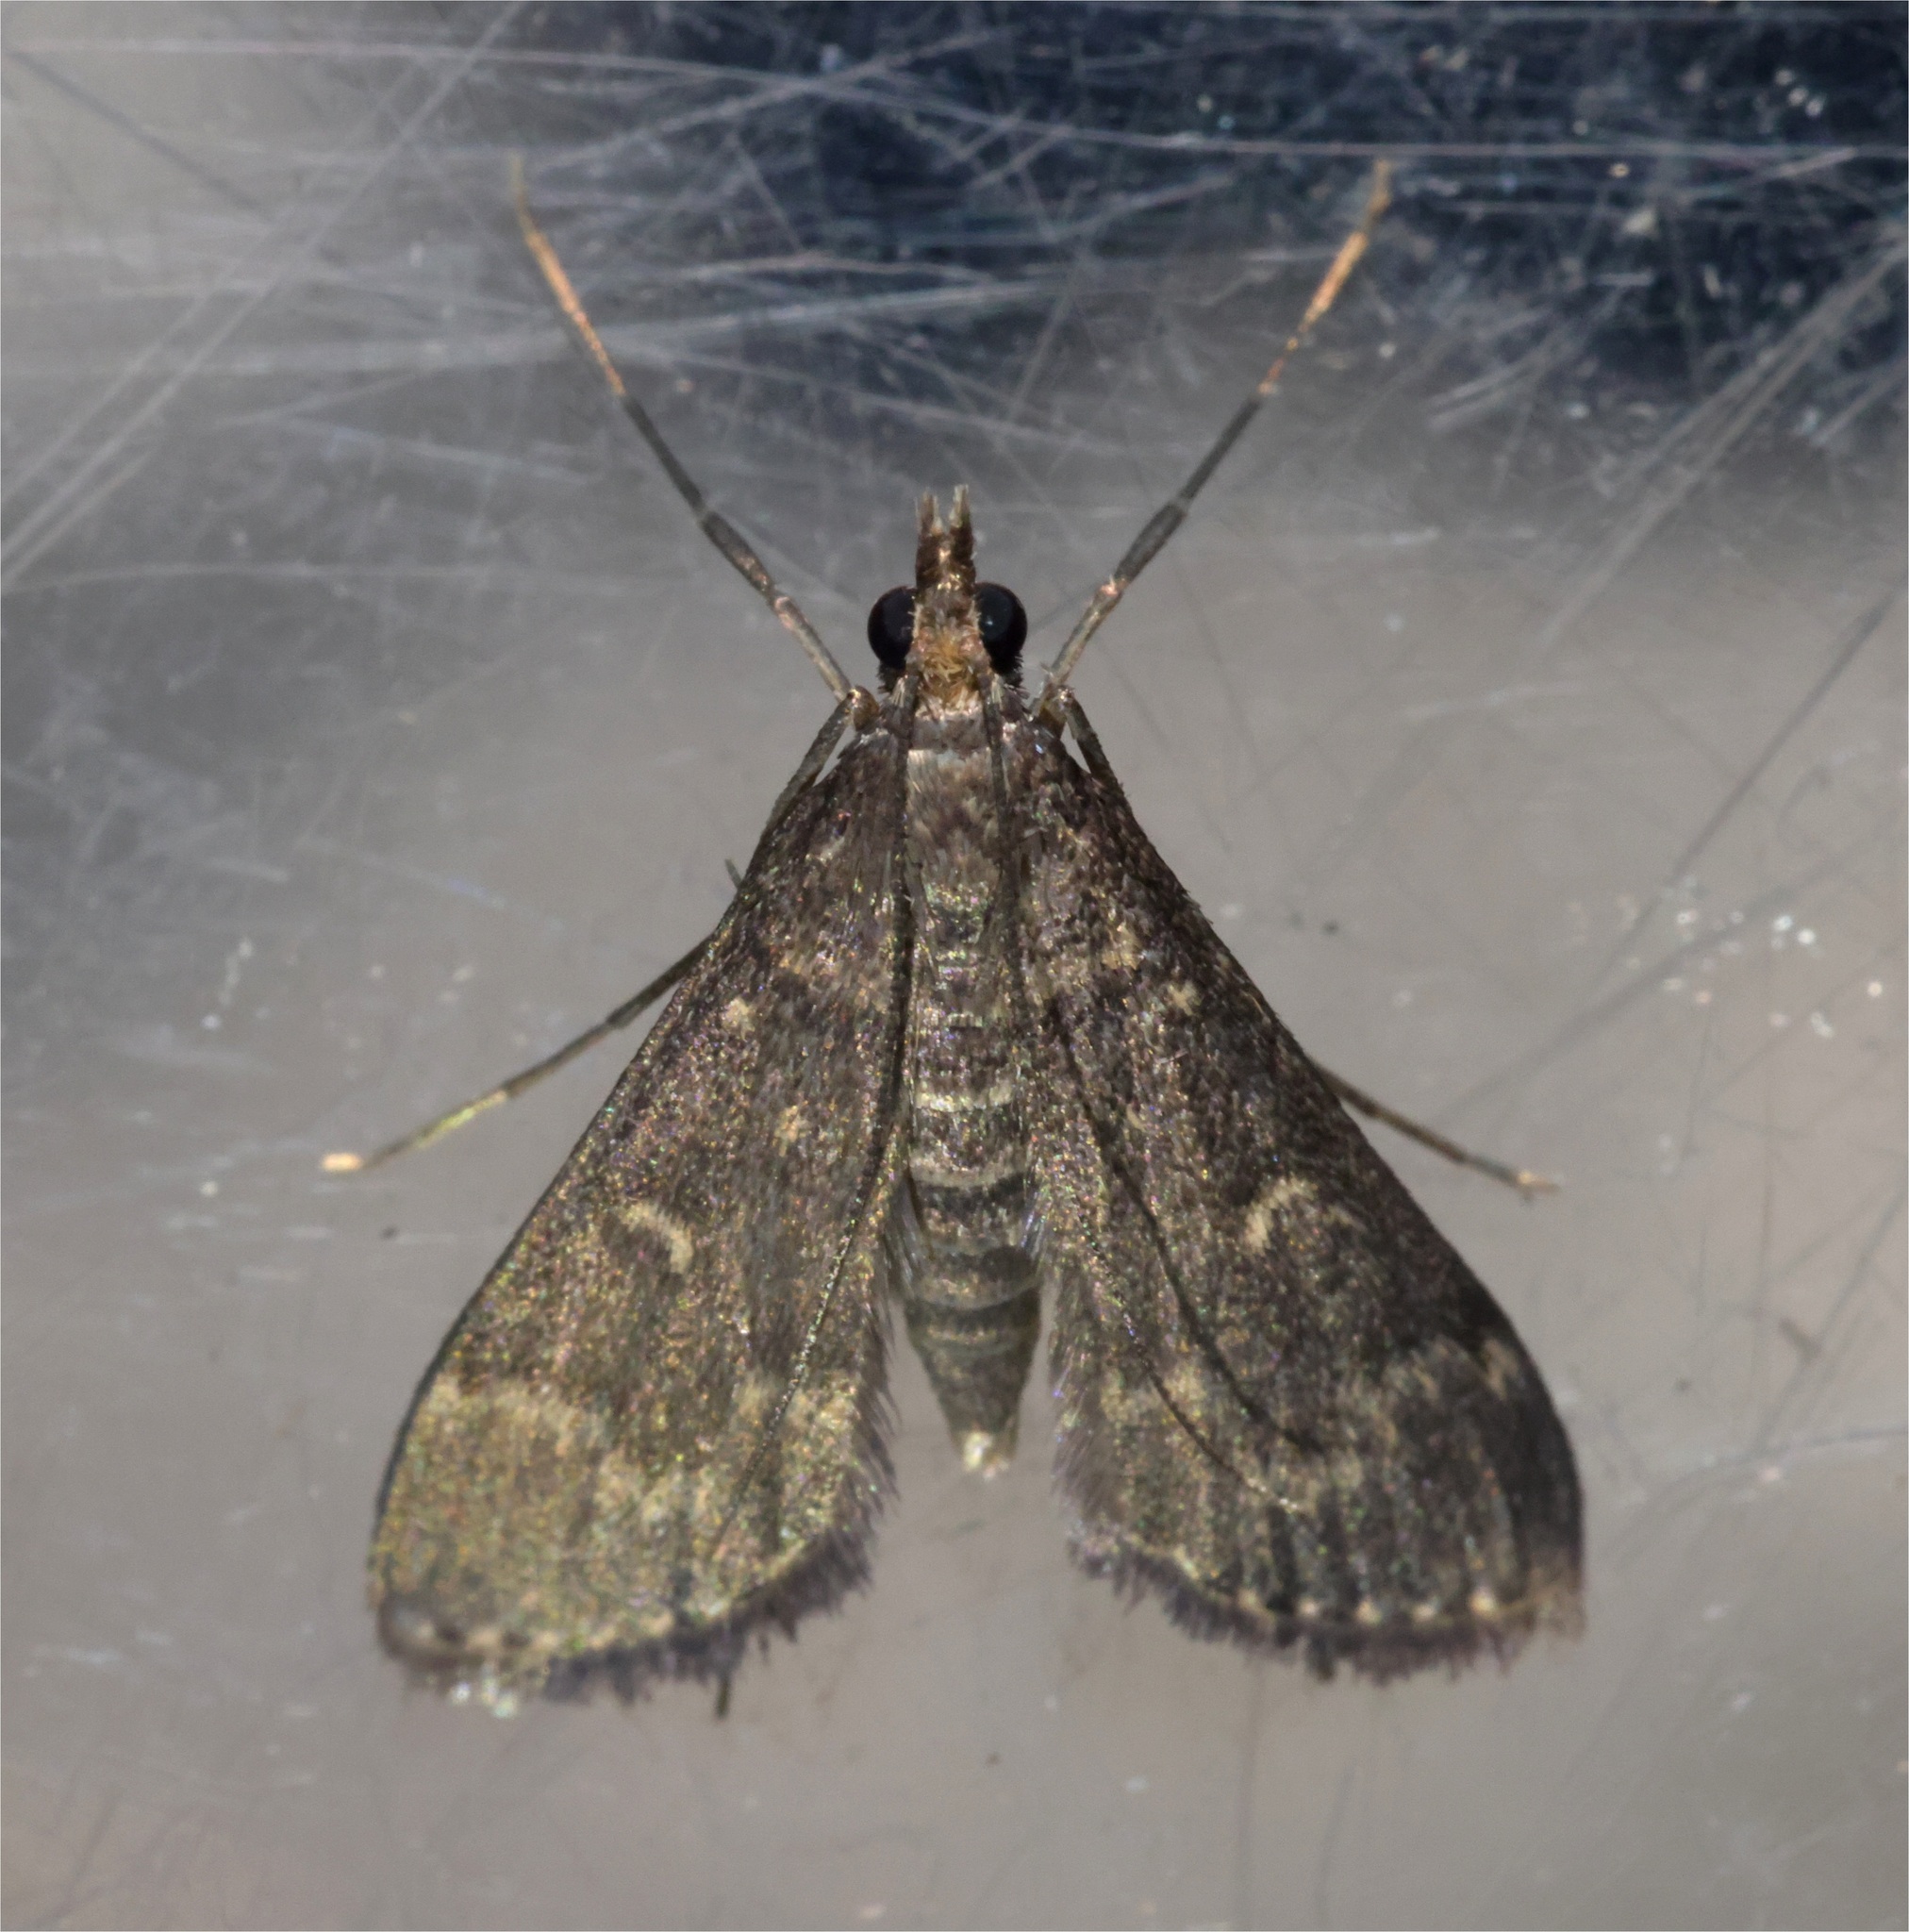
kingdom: Animalia
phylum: Arthropoda
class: Insecta
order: Lepidoptera
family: Crambidae
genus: Symmoracma
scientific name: Symmoracma minoralis
